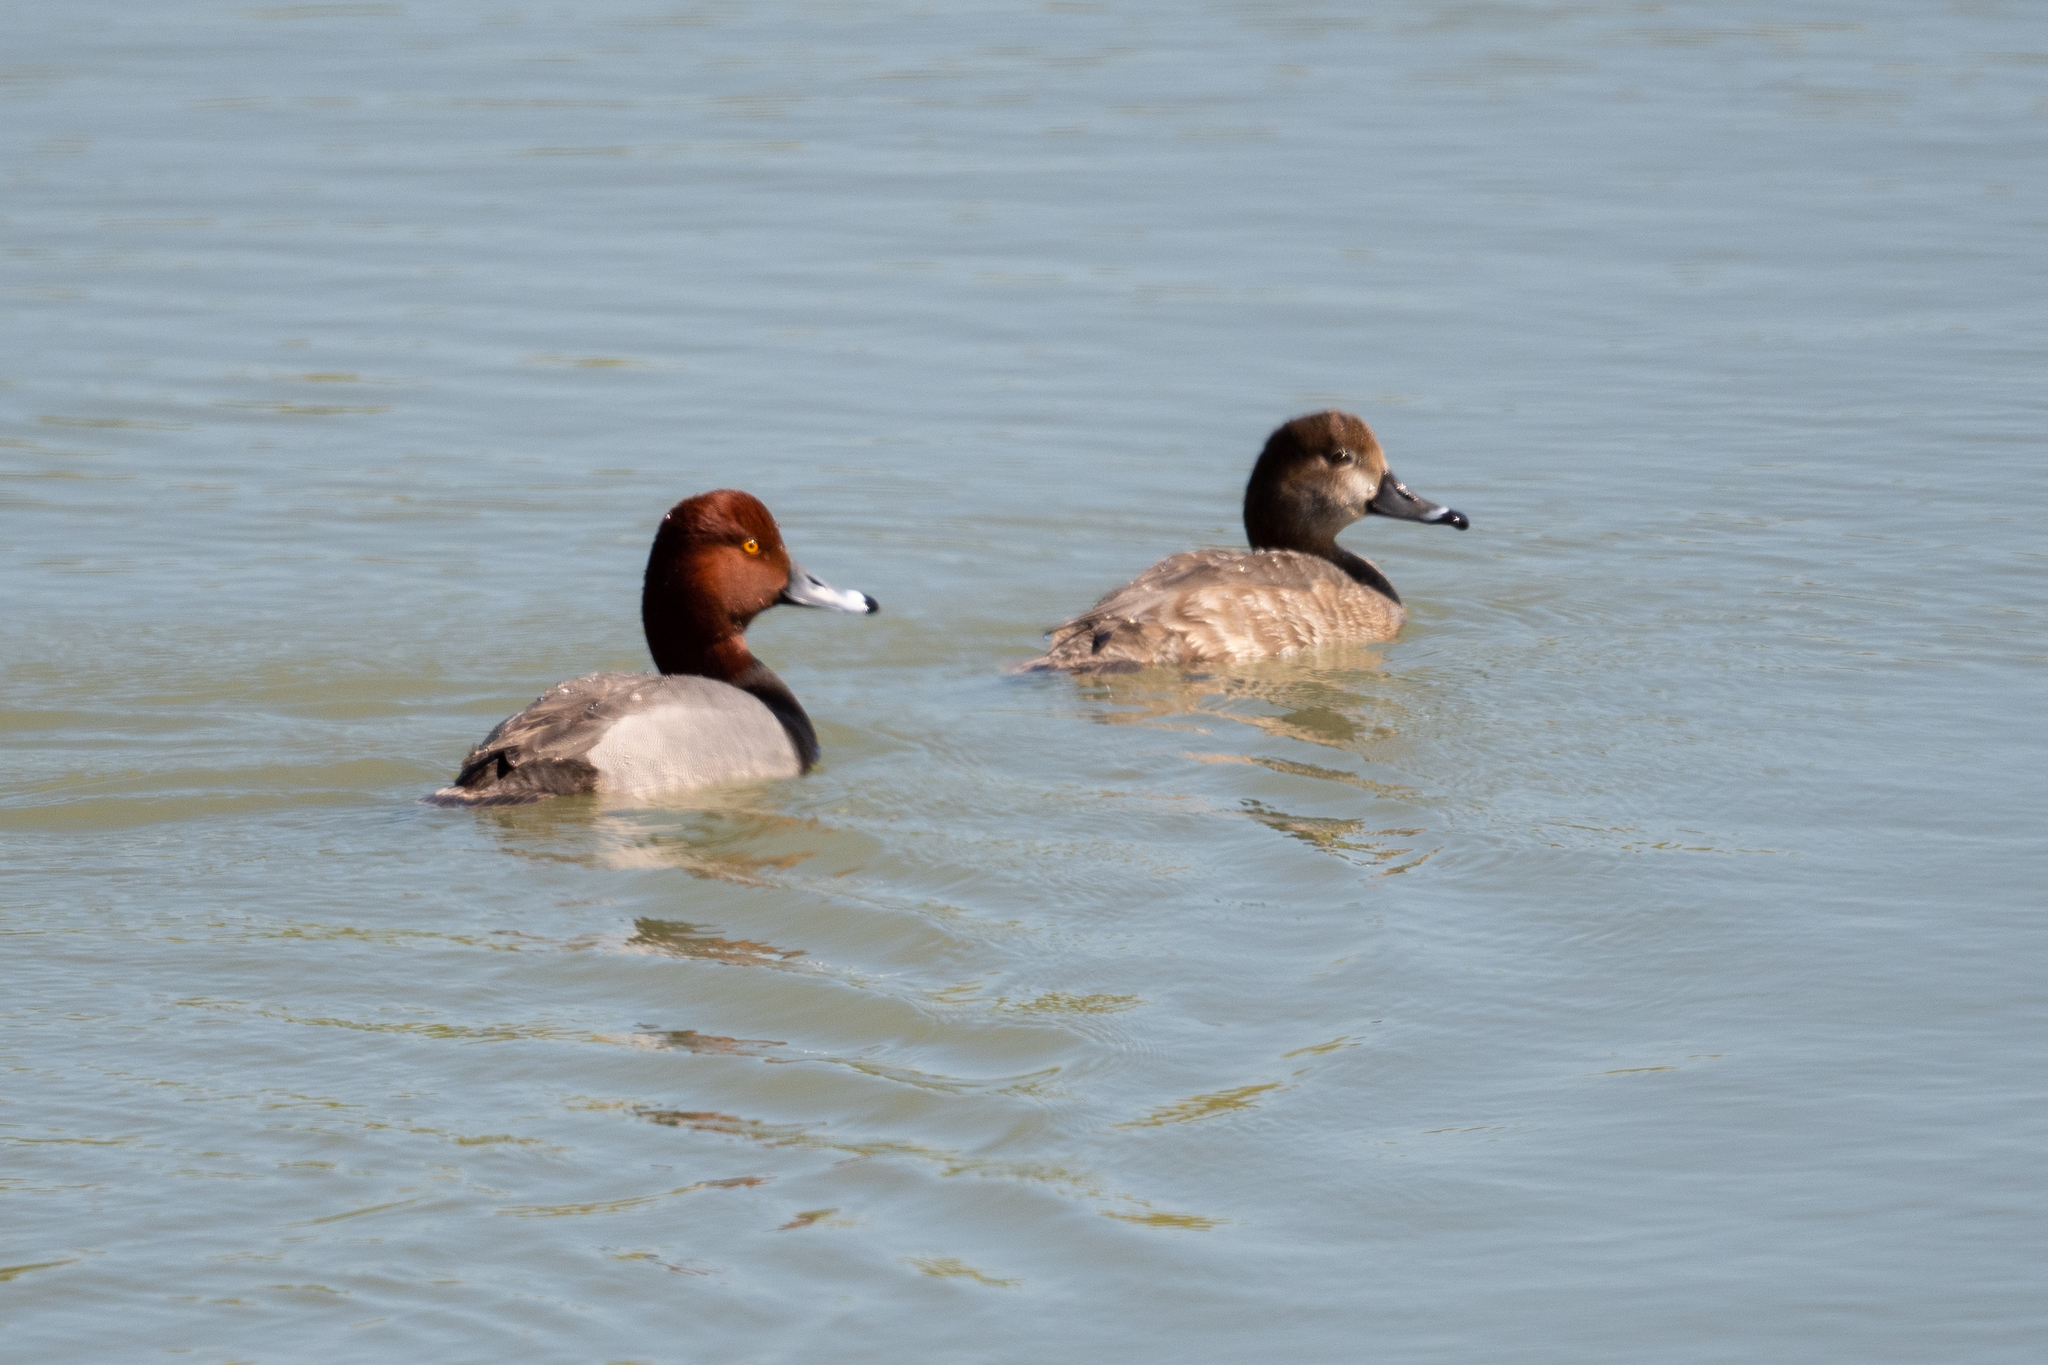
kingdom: Animalia
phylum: Chordata
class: Aves
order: Anseriformes
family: Anatidae
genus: Aythya
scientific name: Aythya americana
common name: Redhead
